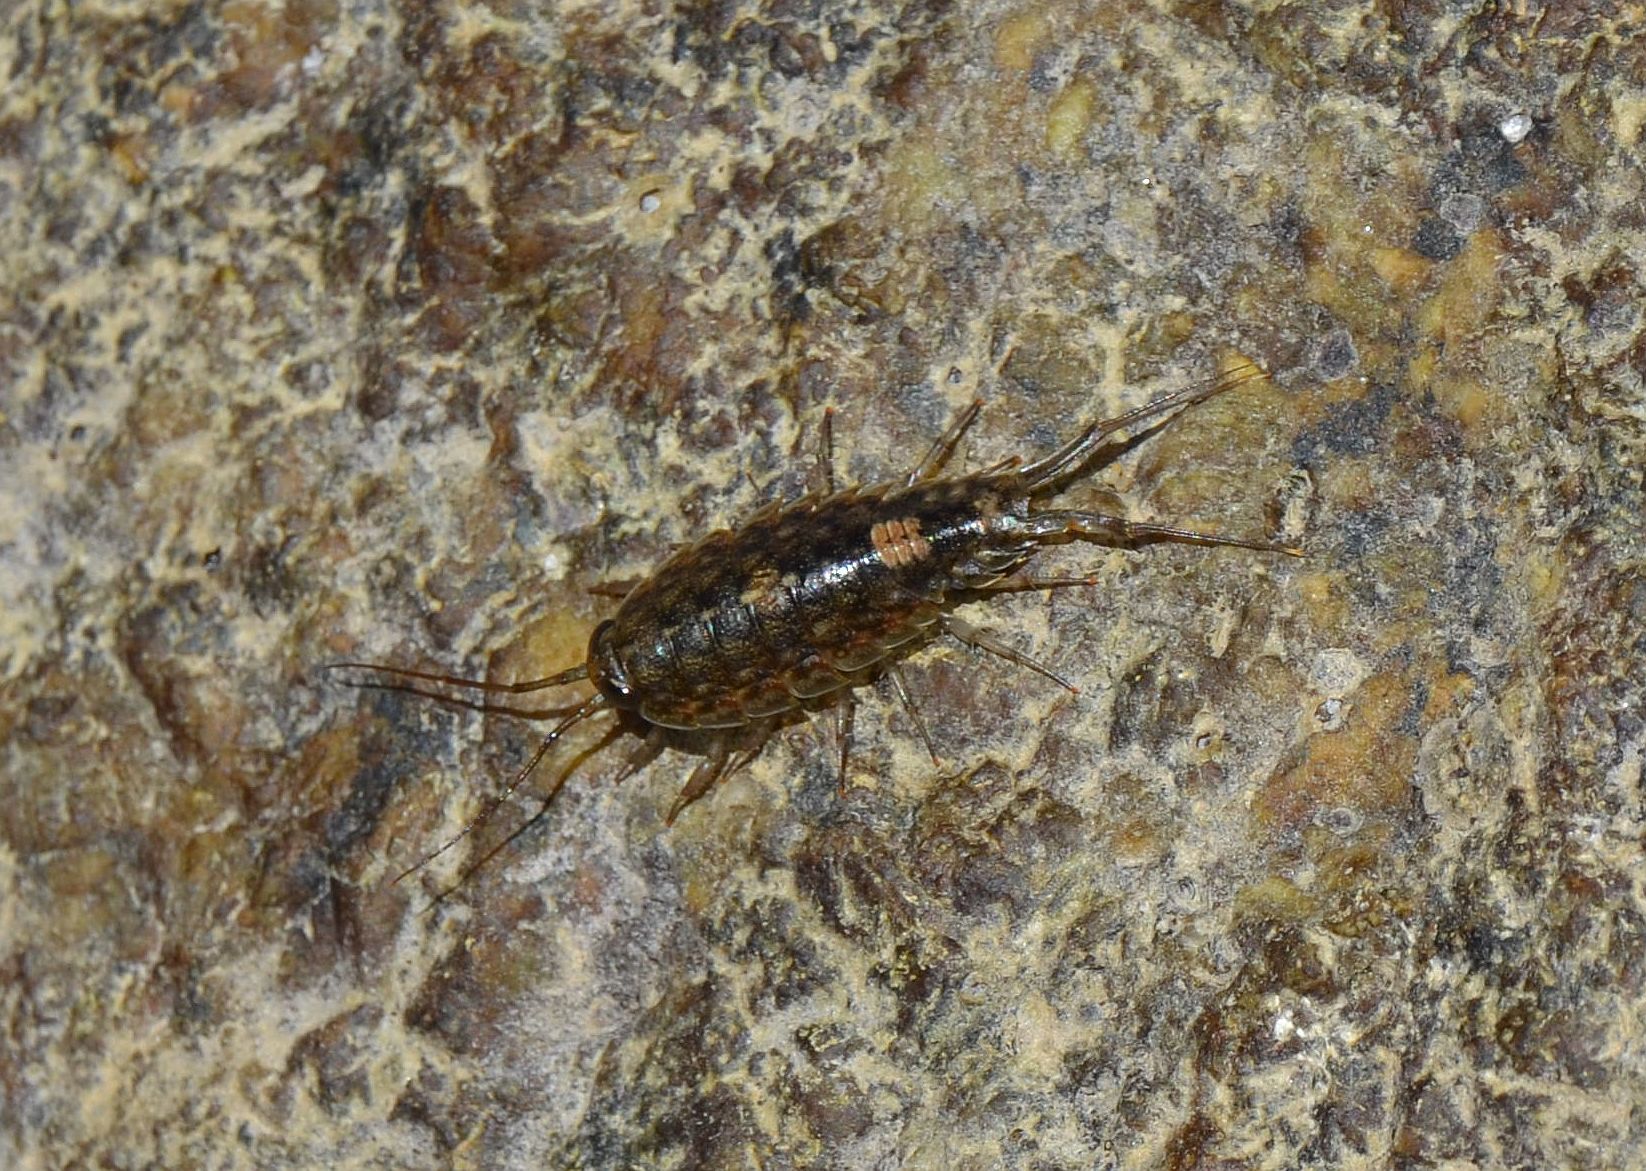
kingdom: Animalia
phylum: Arthropoda
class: Malacostraca
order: Isopoda
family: Ligiidae
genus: Ligia
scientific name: Ligia exotica
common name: Wharf roach
